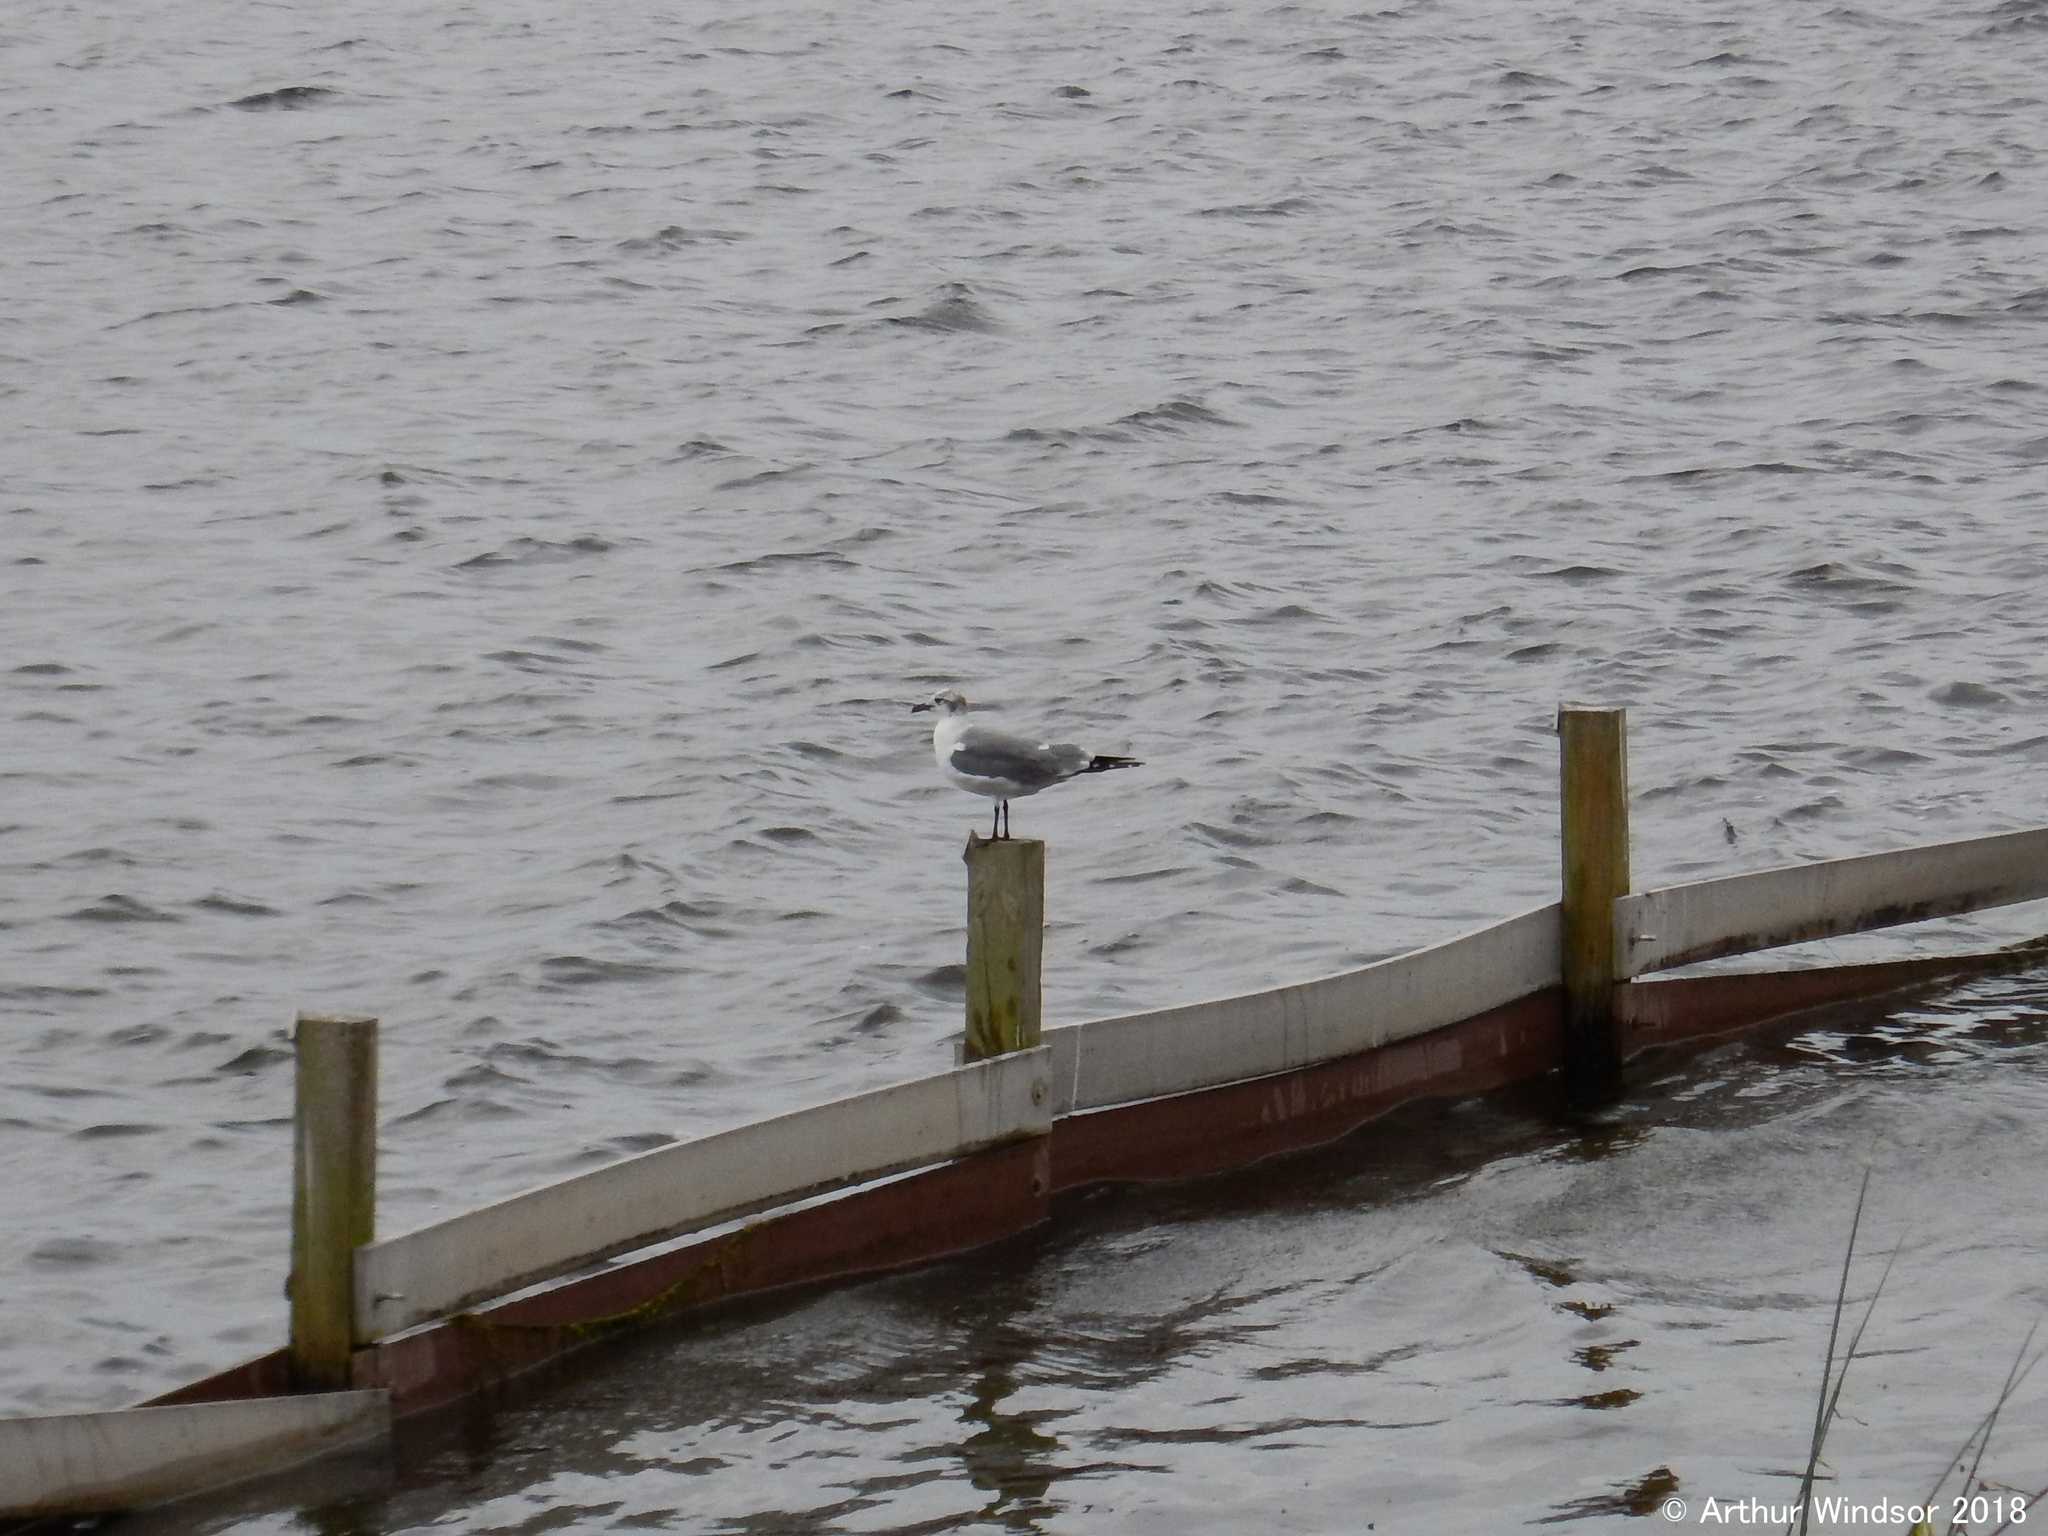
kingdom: Animalia
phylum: Chordata
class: Aves
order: Charadriiformes
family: Laridae
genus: Leucophaeus
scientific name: Leucophaeus atricilla
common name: Laughing gull
